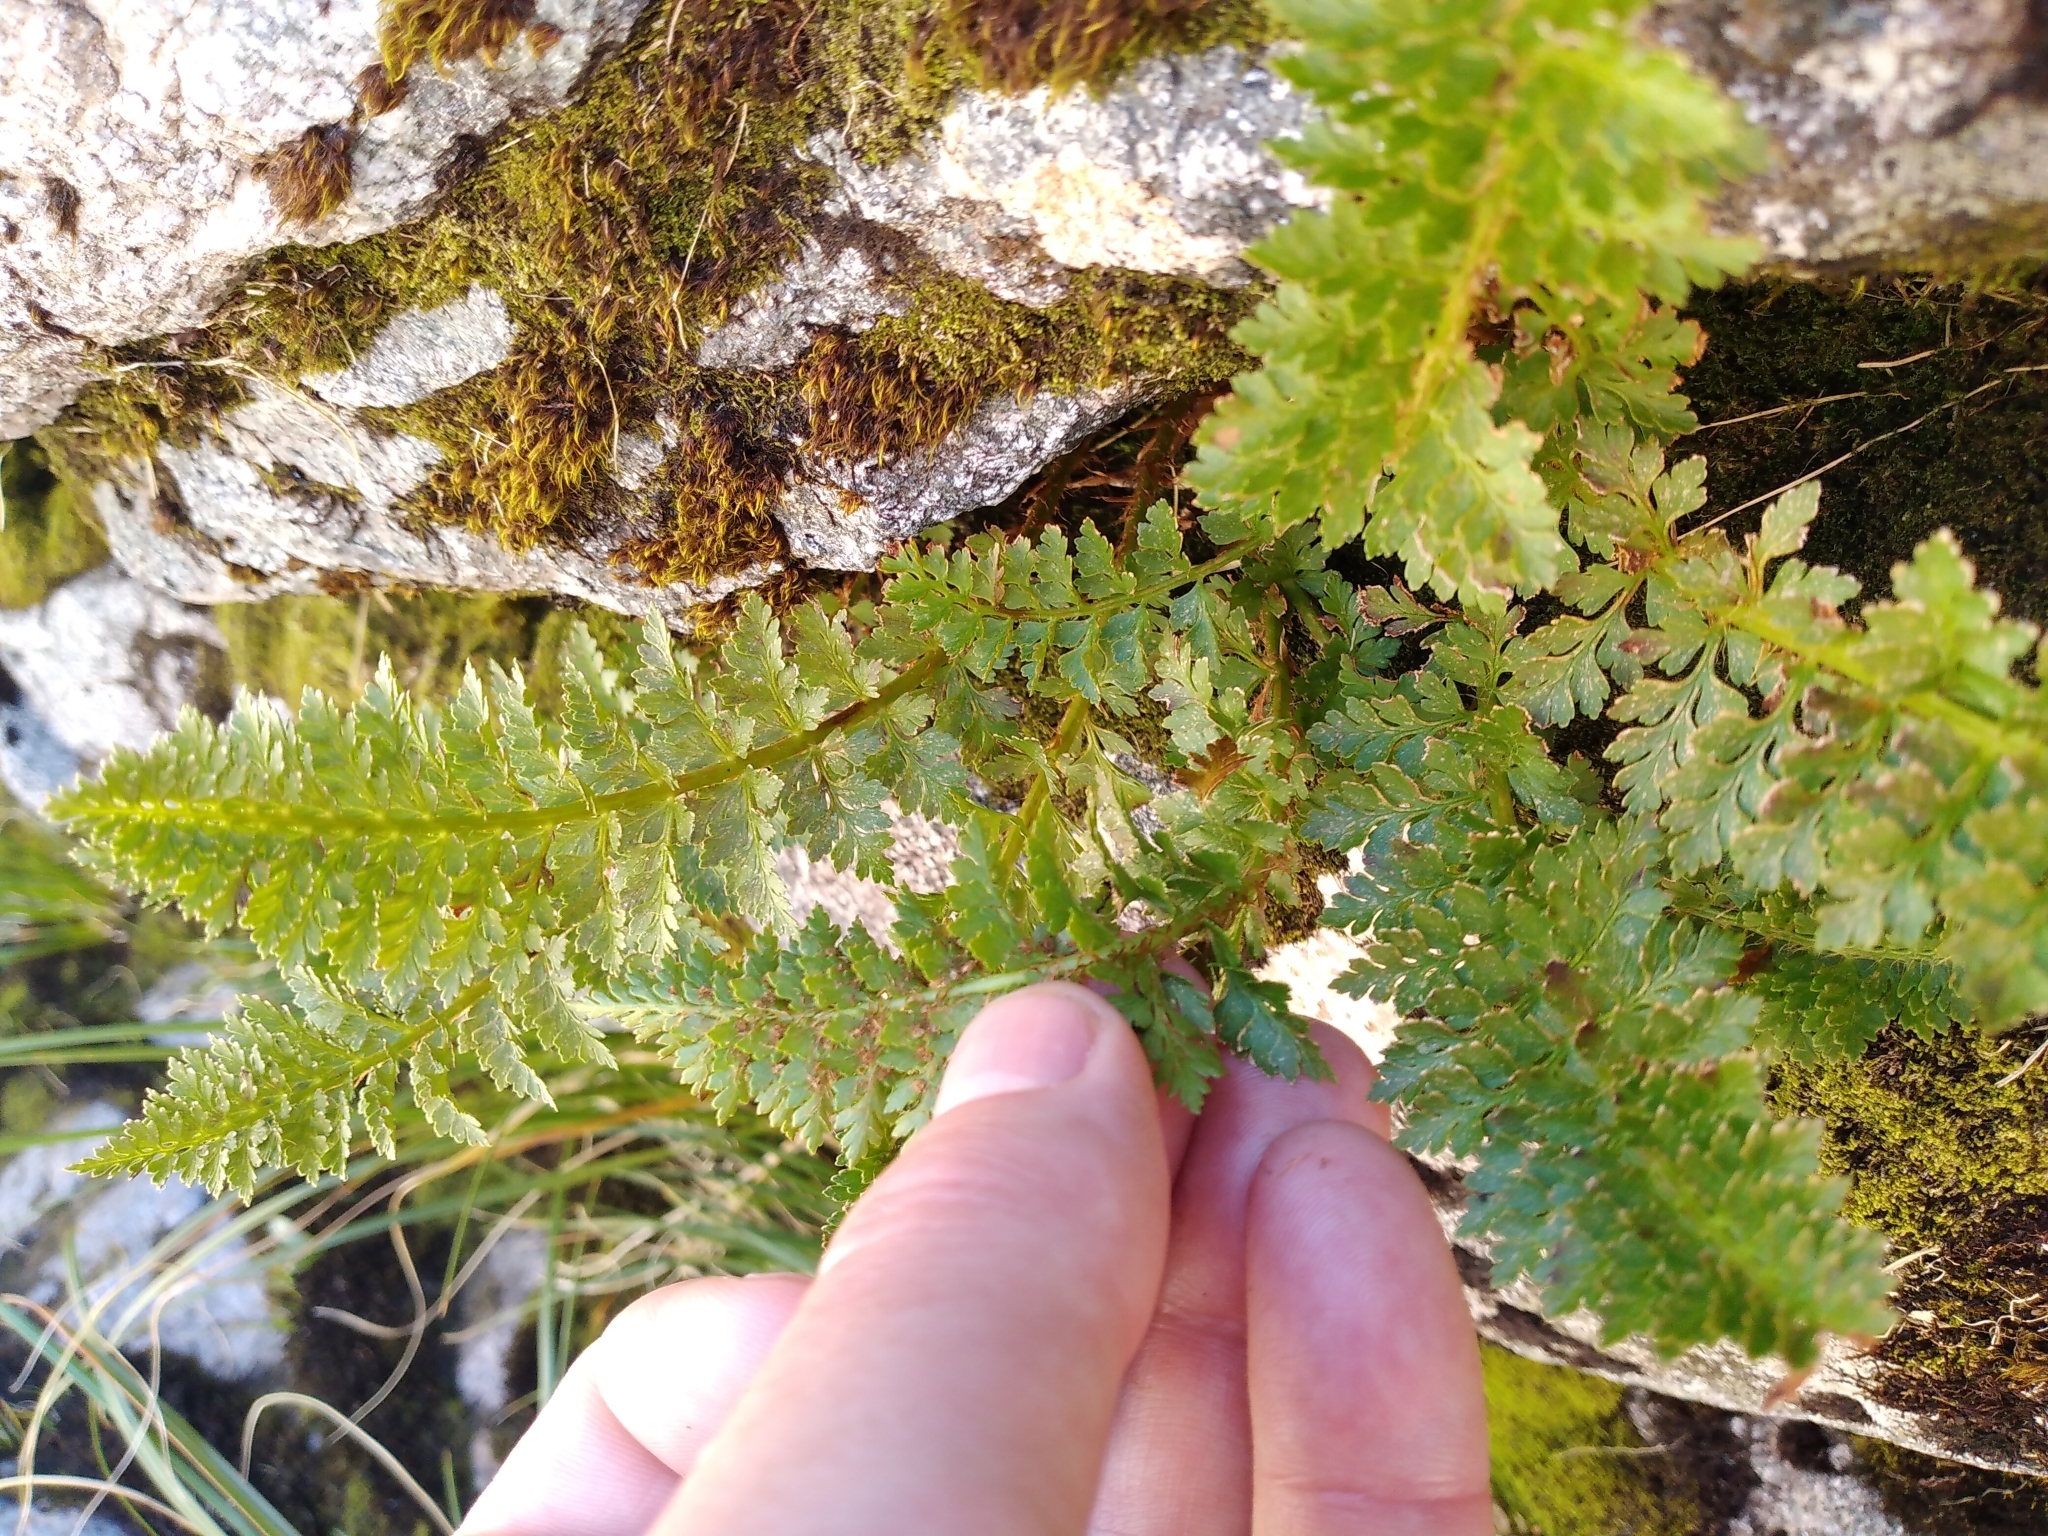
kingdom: Plantae
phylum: Tracheophyta
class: Polypodiopsida
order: Polypodiales
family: Dryopteridaceae
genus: Polystichum
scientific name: Polystichum cystostegia
